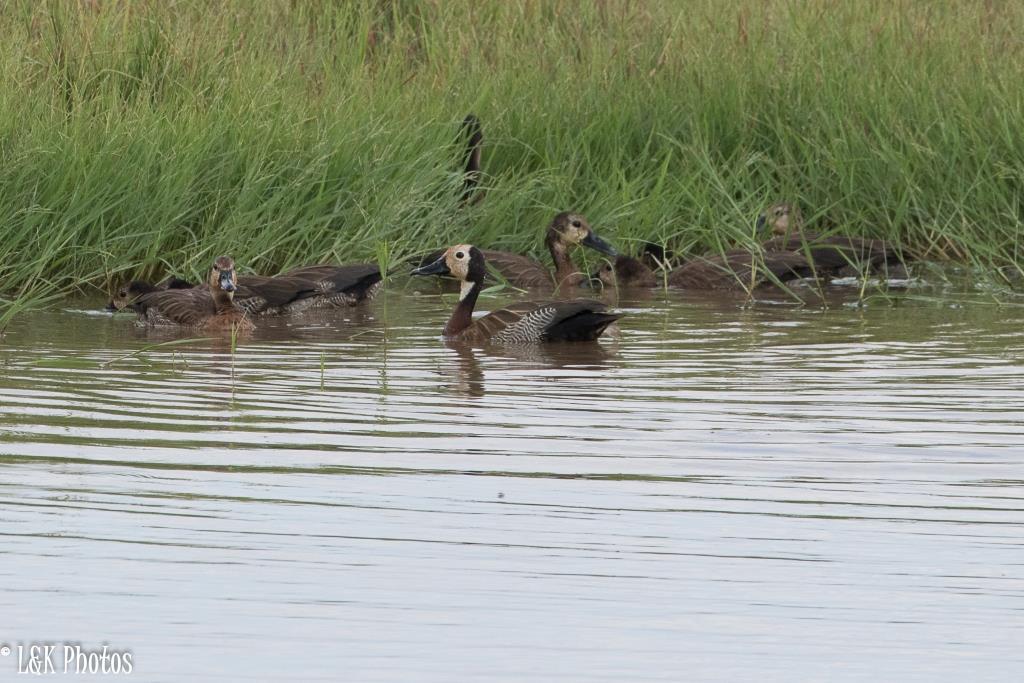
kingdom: Animalia
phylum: Chordata
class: Aves
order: Anseriformes
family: Anatidae
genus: Dendrocygna
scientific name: Dendrocygna viduata
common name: White-faced whistling duck
